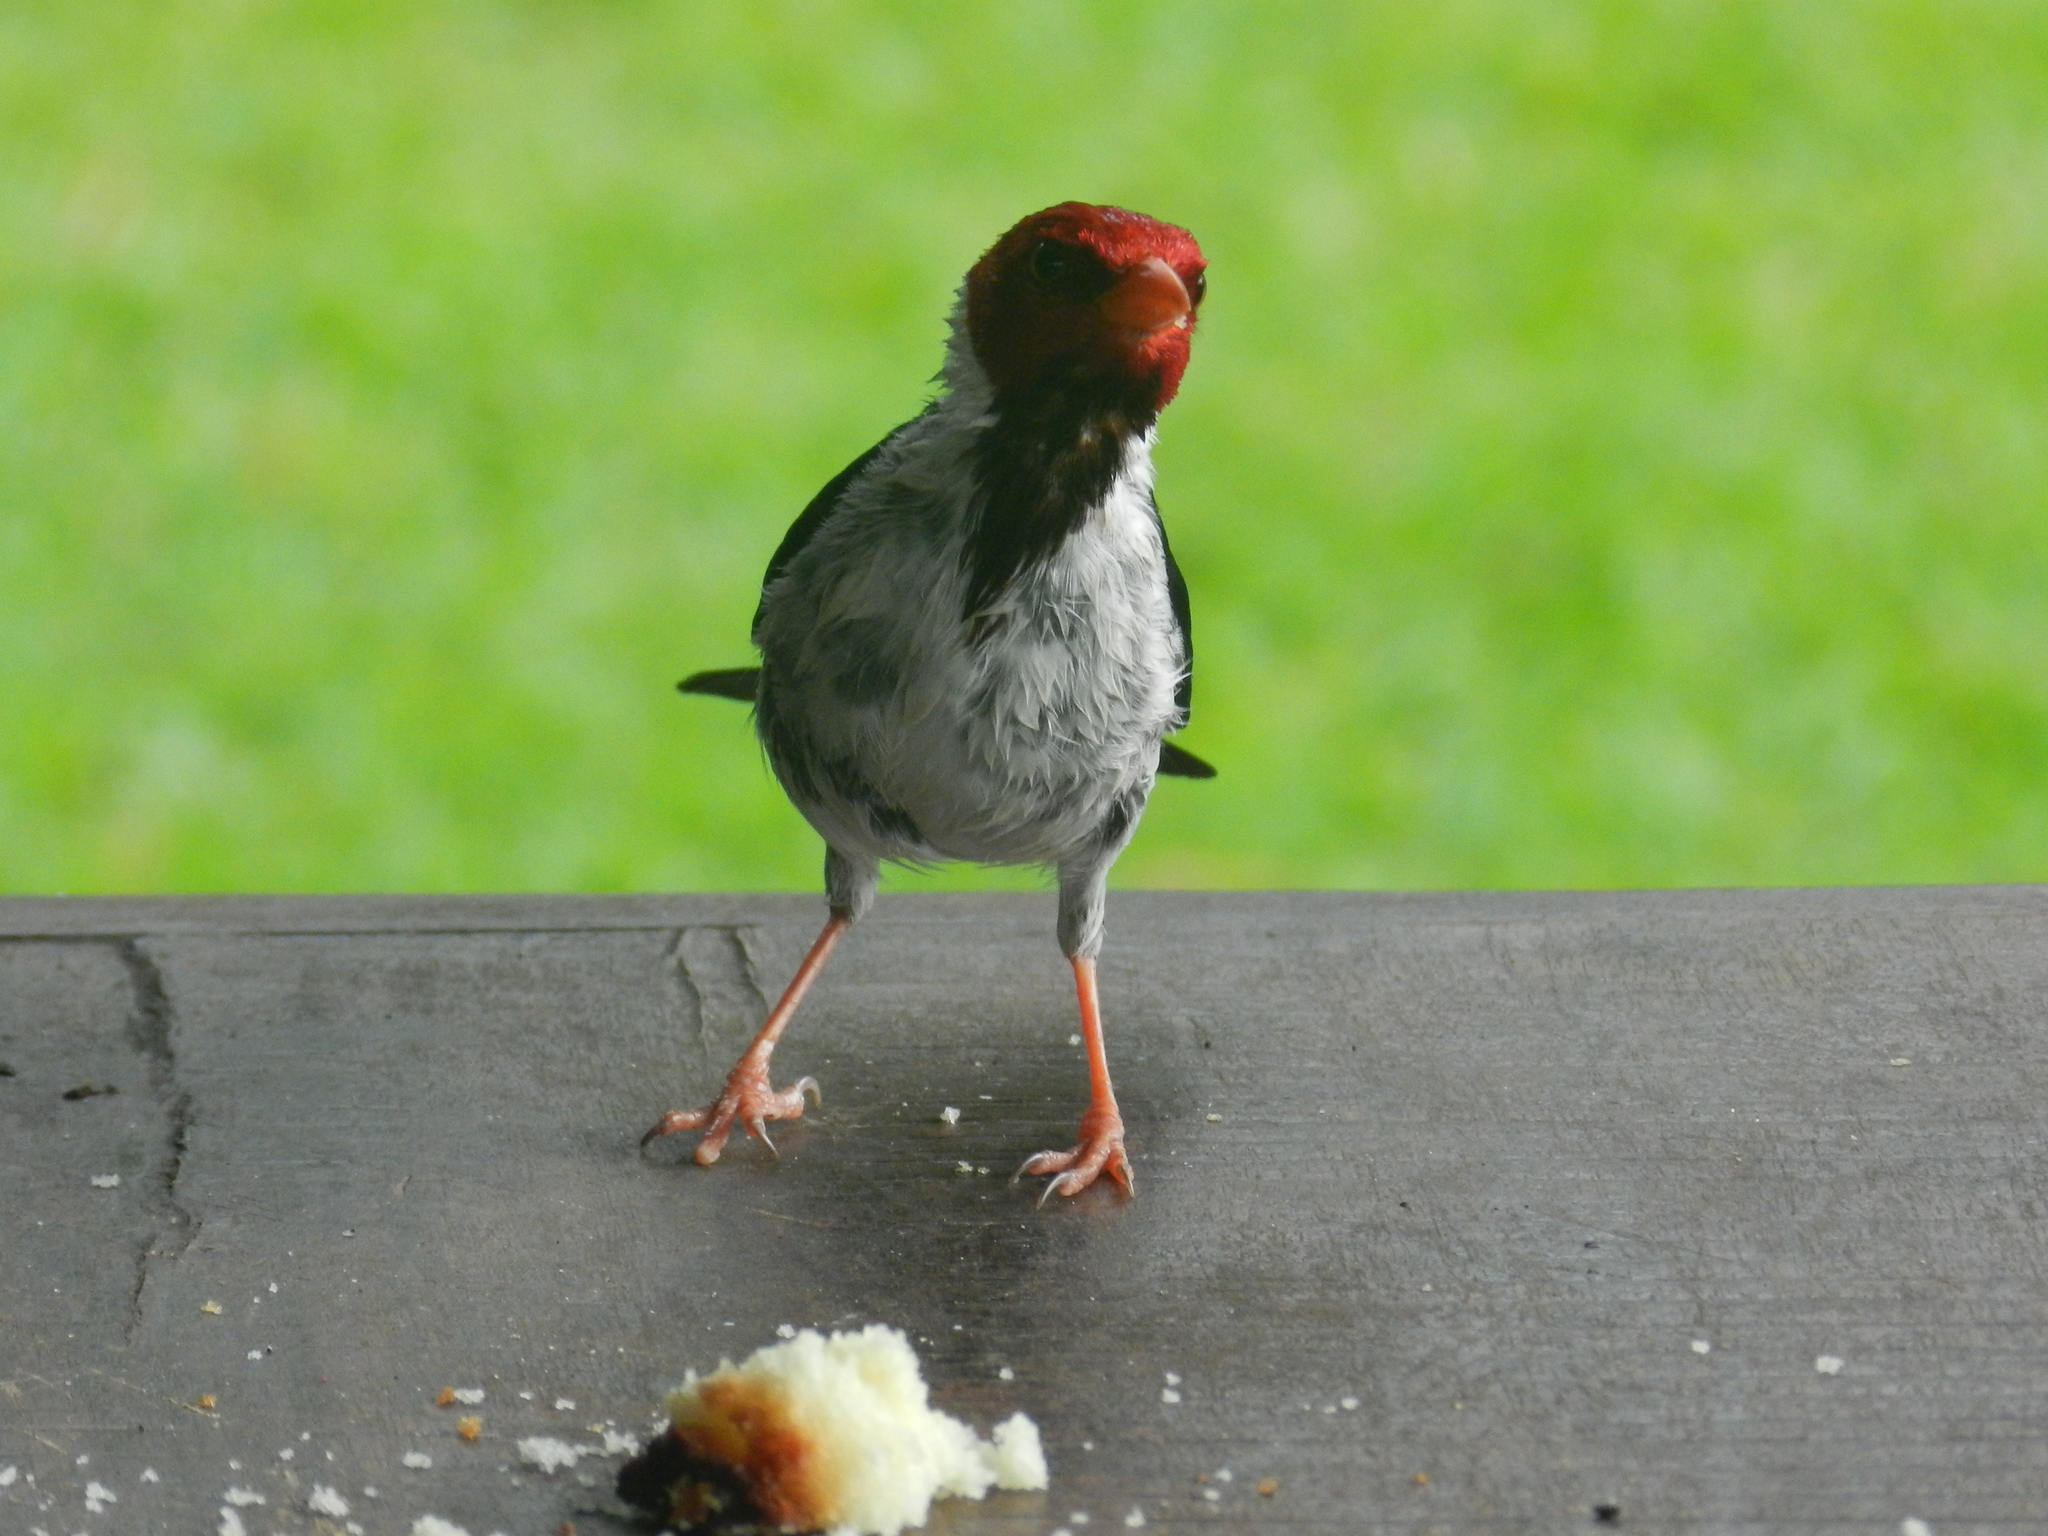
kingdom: Animalia
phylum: Chordata
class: Aves
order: Passeriformes
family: Thraupidae
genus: Paroaria
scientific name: Paroaria capitata
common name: Yellow-billed cardinal
